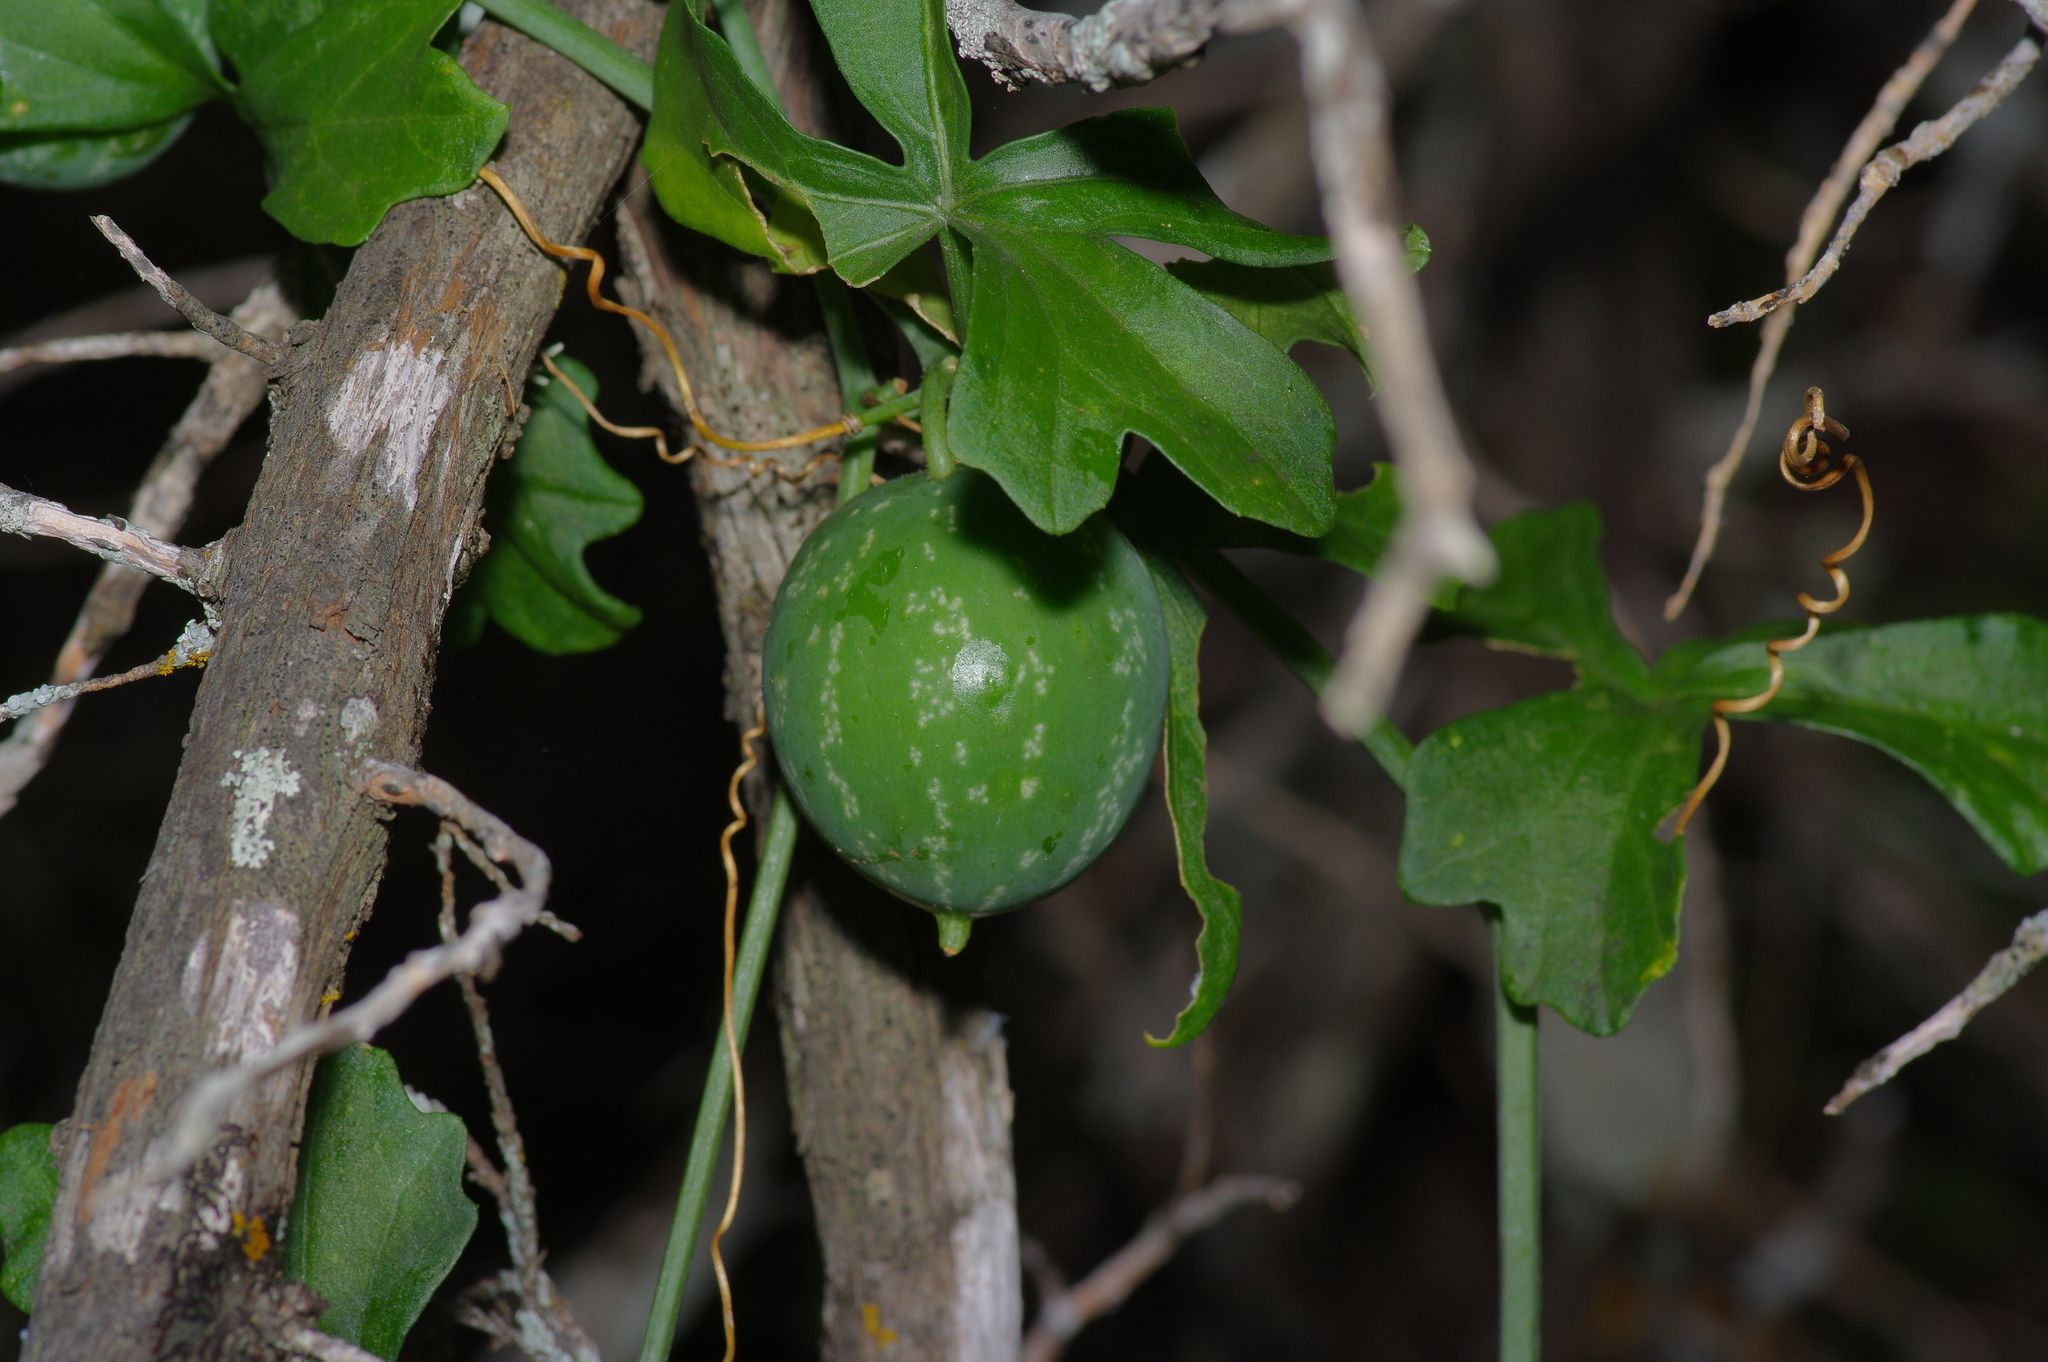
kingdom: Plantae
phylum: Tracheophyta
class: Magnoliopsida
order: Cucurbitales
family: Cucurbitaceae
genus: Ibervillea
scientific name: Ibervillea lindheimeri
